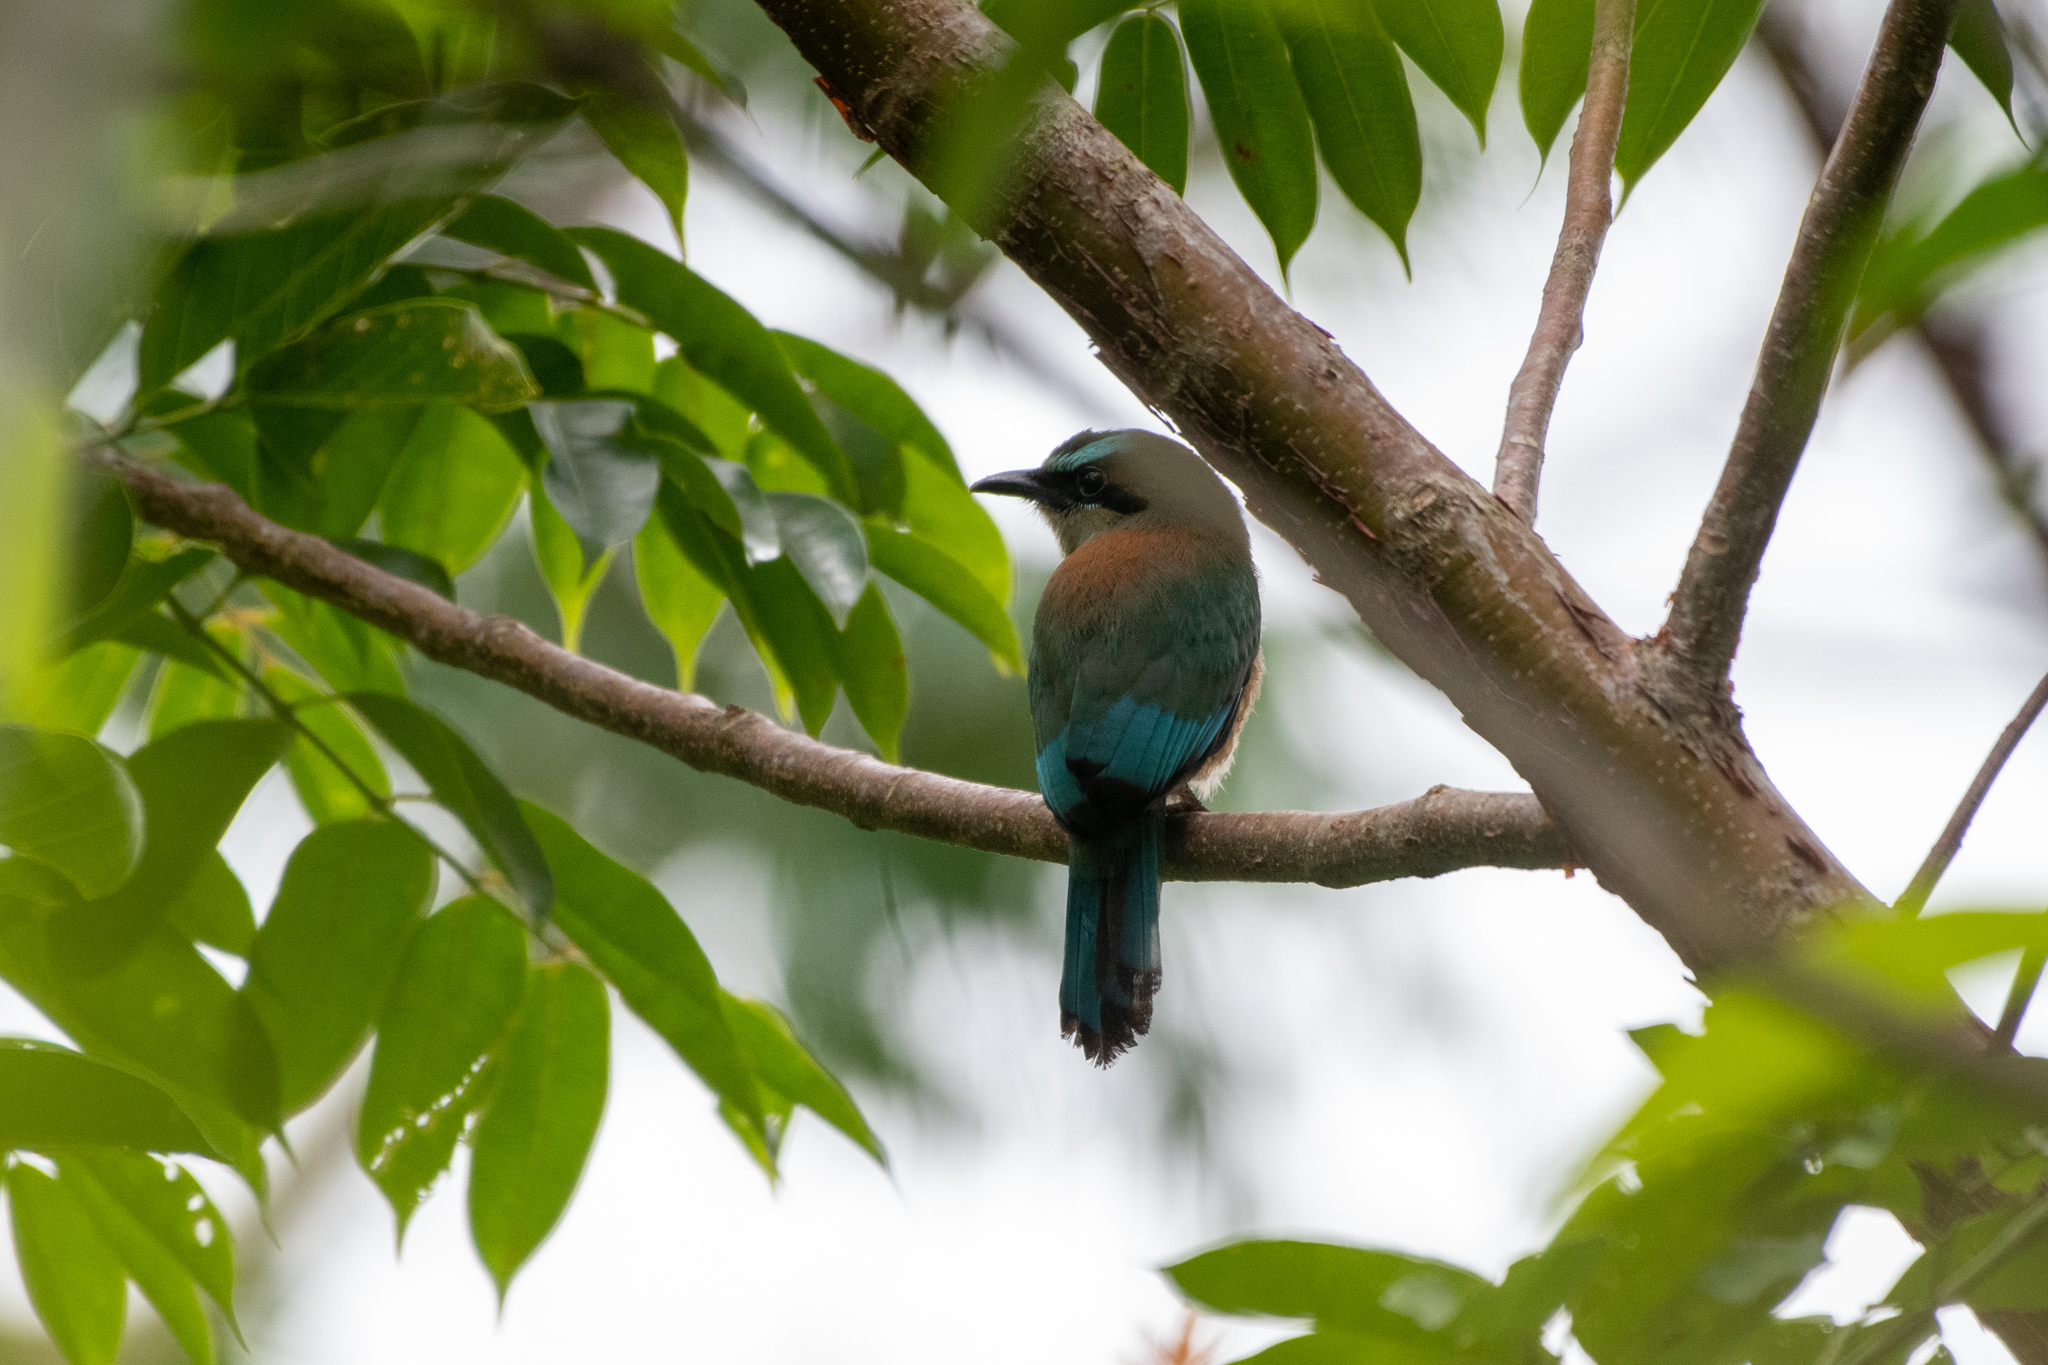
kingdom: Animalia
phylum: Chordata
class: Aves
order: Coraciiformes
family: Momotidae
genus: Eumomota
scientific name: Eumomota superciliosa
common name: Turquoise-browed motmot
